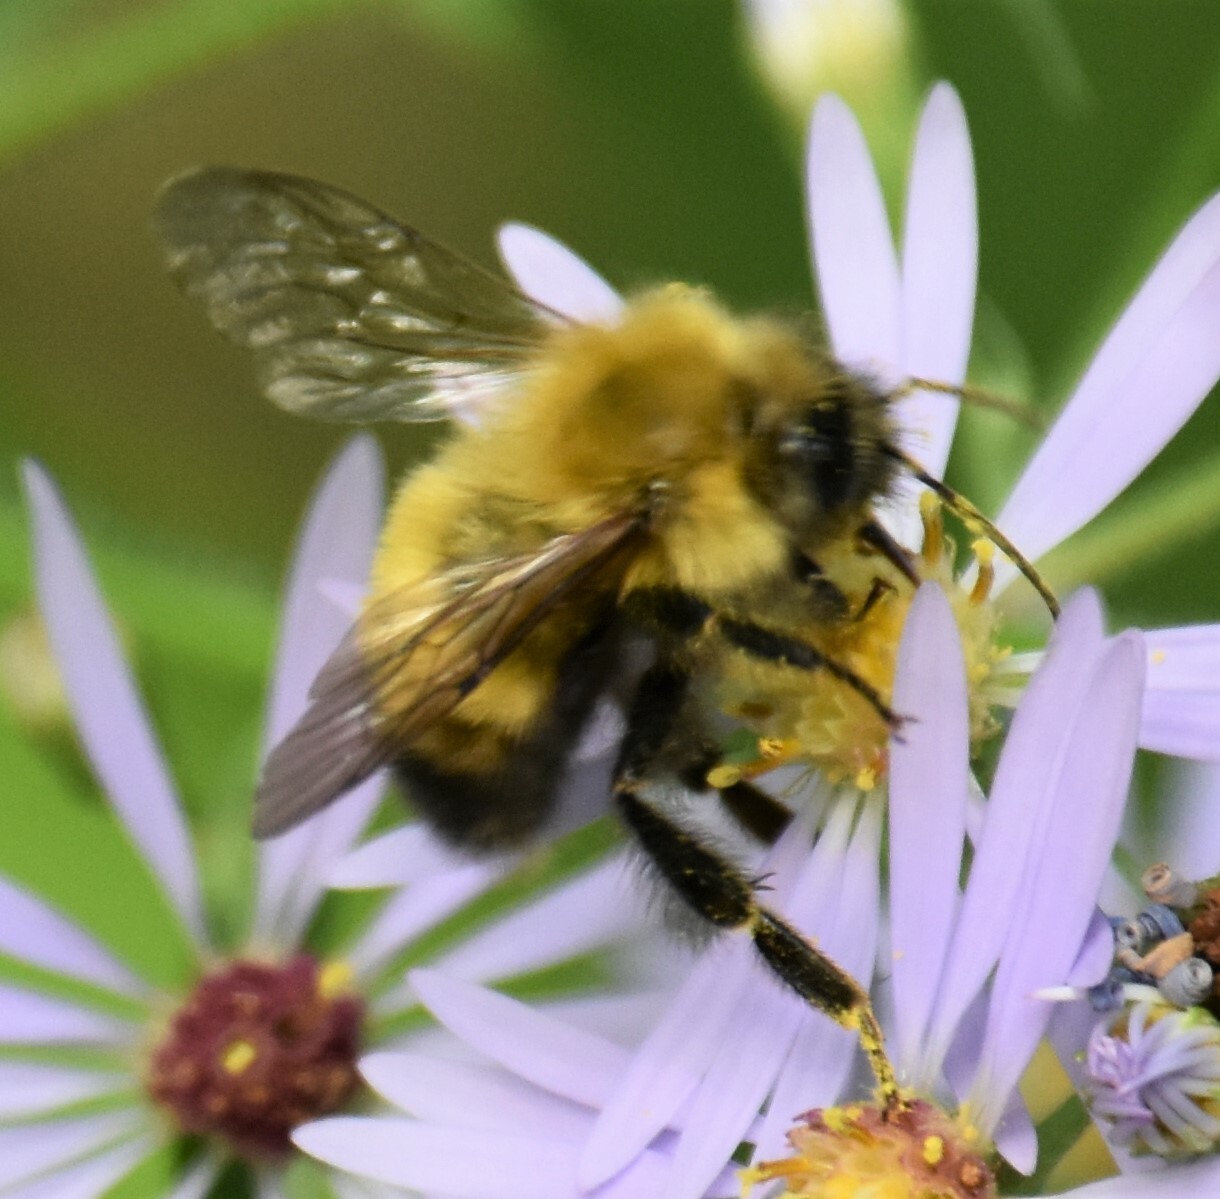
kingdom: Animalia
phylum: Arthropoda
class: Insecta
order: Hymenoptera
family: Apidae
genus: Bombus
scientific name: Bombus perplexus
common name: Confusing bumble bee
